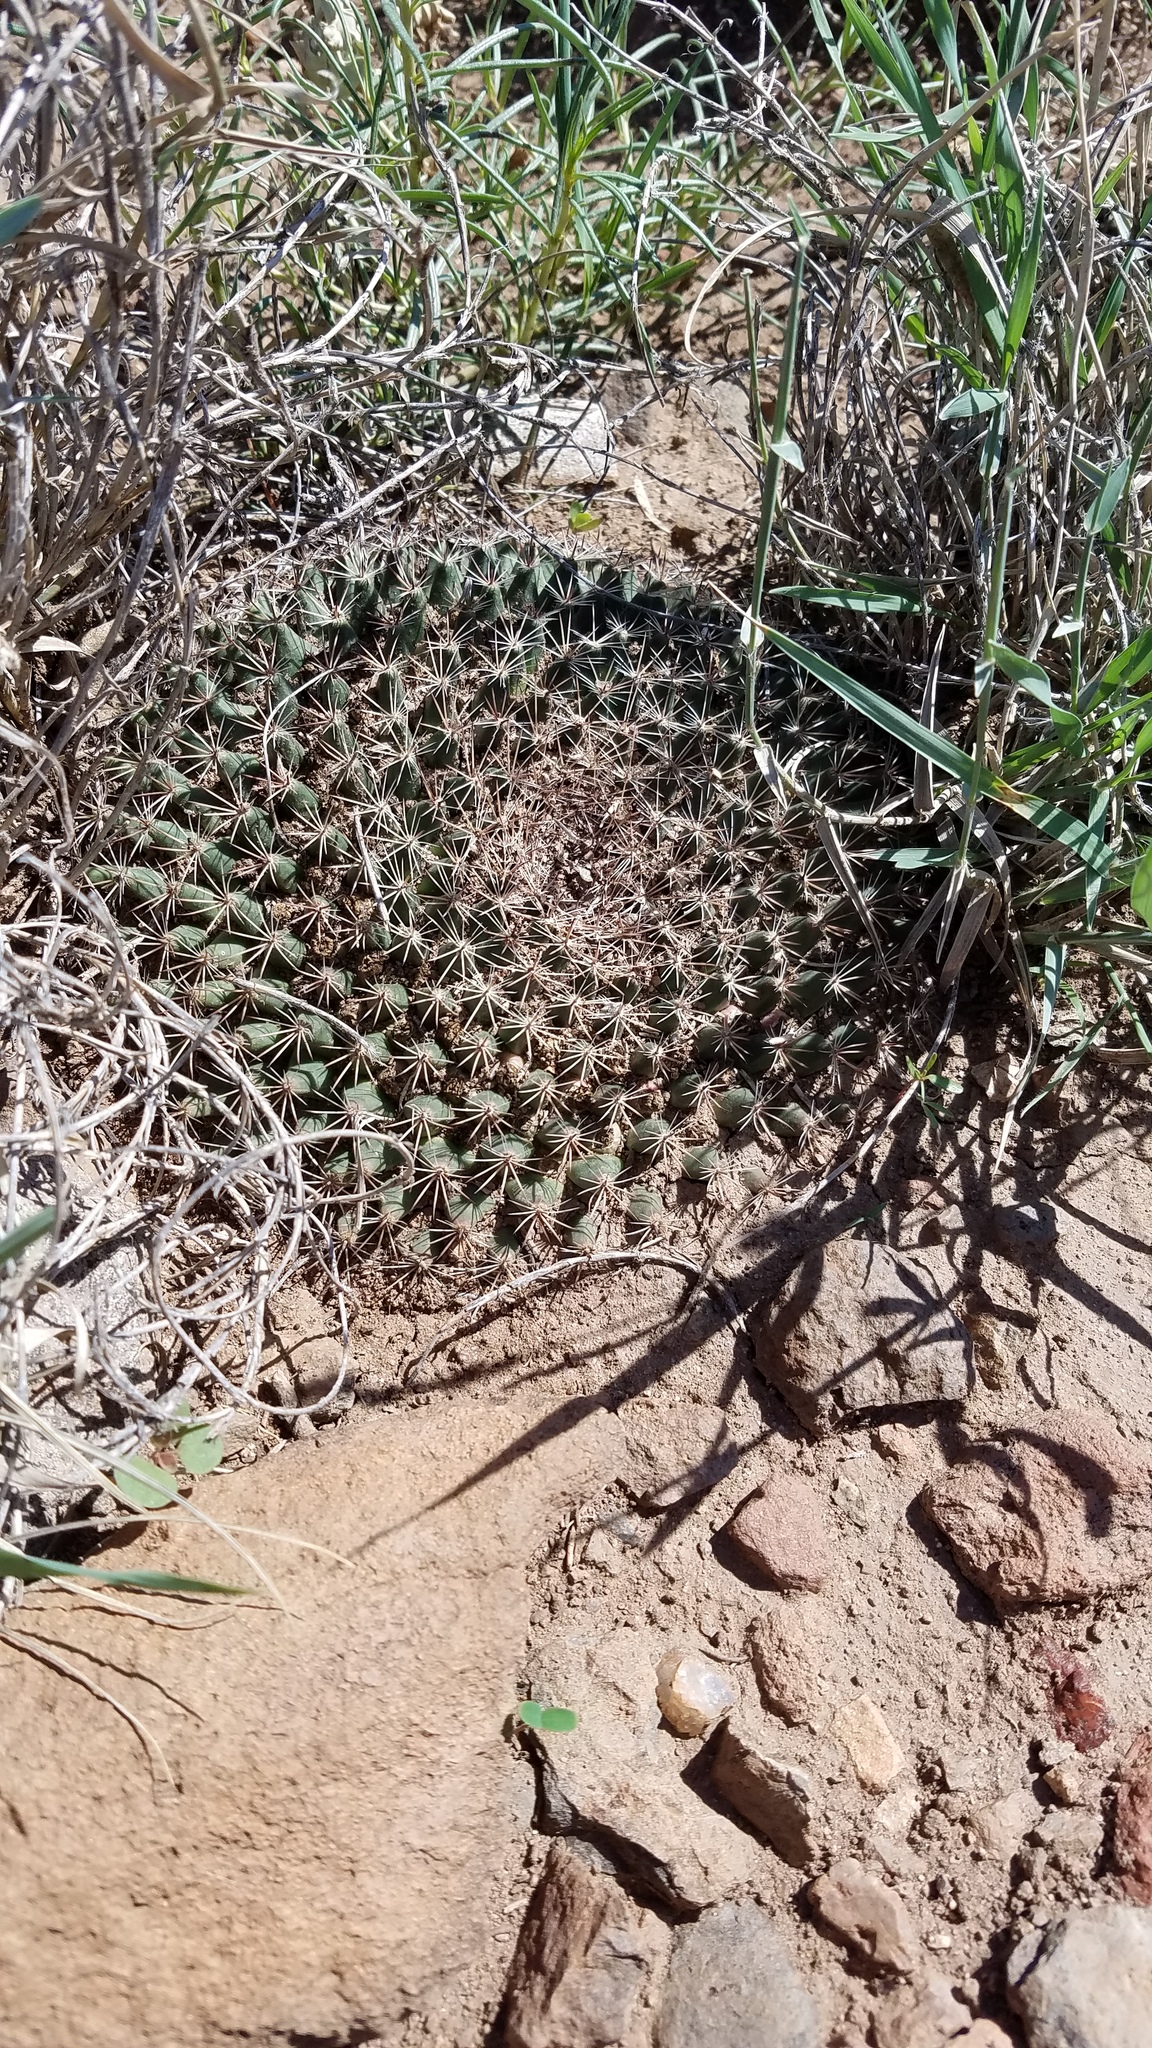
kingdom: Plantae
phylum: Tracheophyta
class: Magnoliopsida
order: Caryophyllales
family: Cactaceae
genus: Mammillaria
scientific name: Mammillaria heyderi
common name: Little nipple cactus
